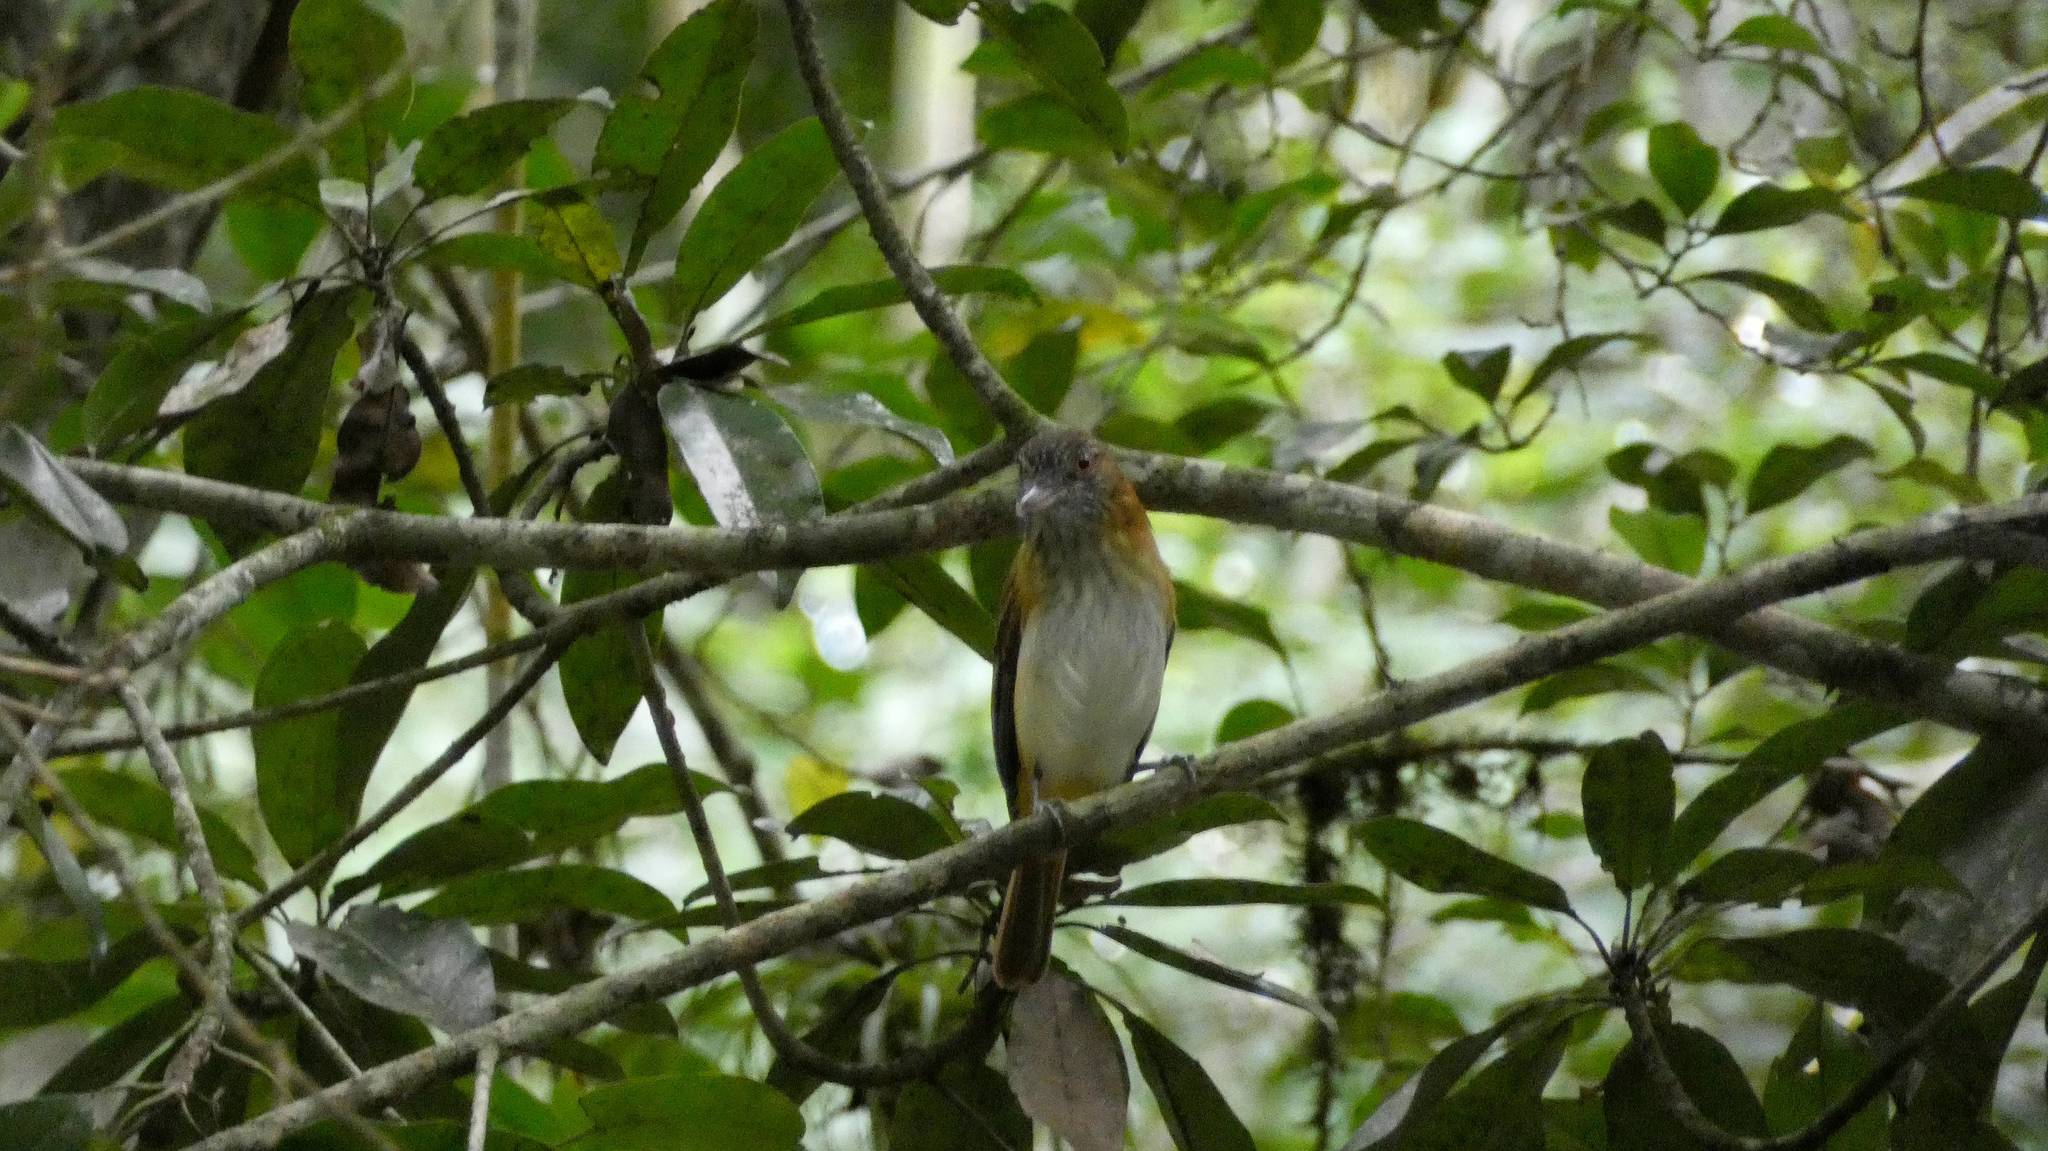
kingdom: Animalia
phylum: Chordata
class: Aves
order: Passeriformes
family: Tyrannidae
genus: Attila
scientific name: Attila spadiceus
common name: Bright-rumped attila
